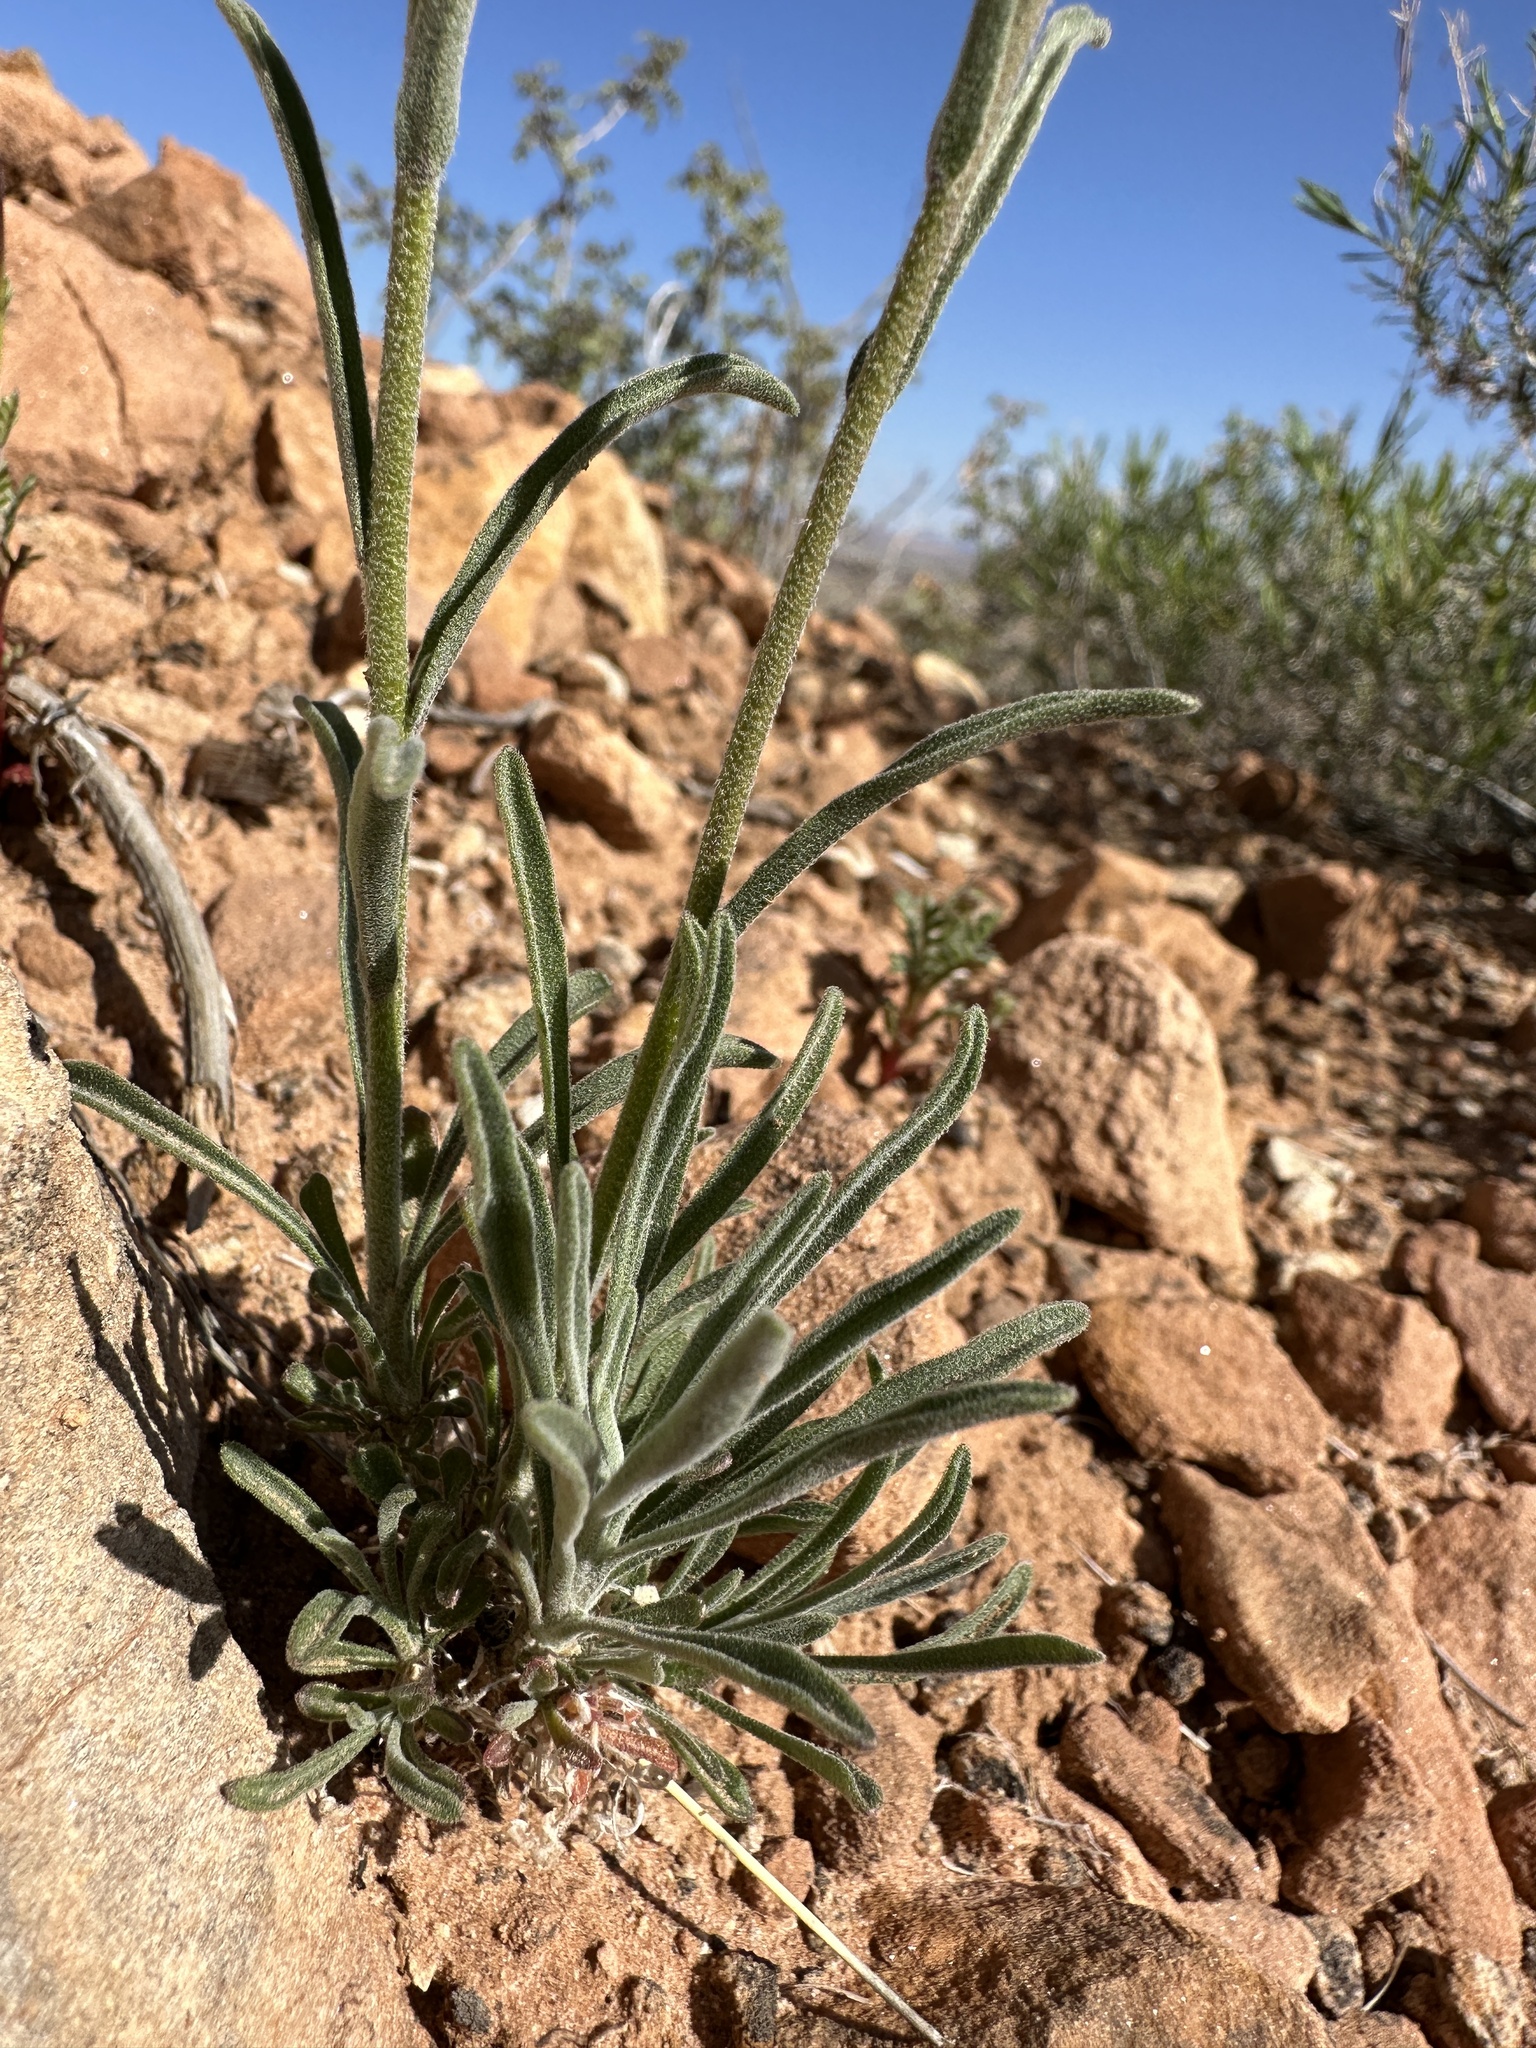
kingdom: Plantae
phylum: Tracheophyta
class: Magnoliopsida
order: Brassicales
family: Brassicaceae
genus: Boechera
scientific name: Boechera formosa
